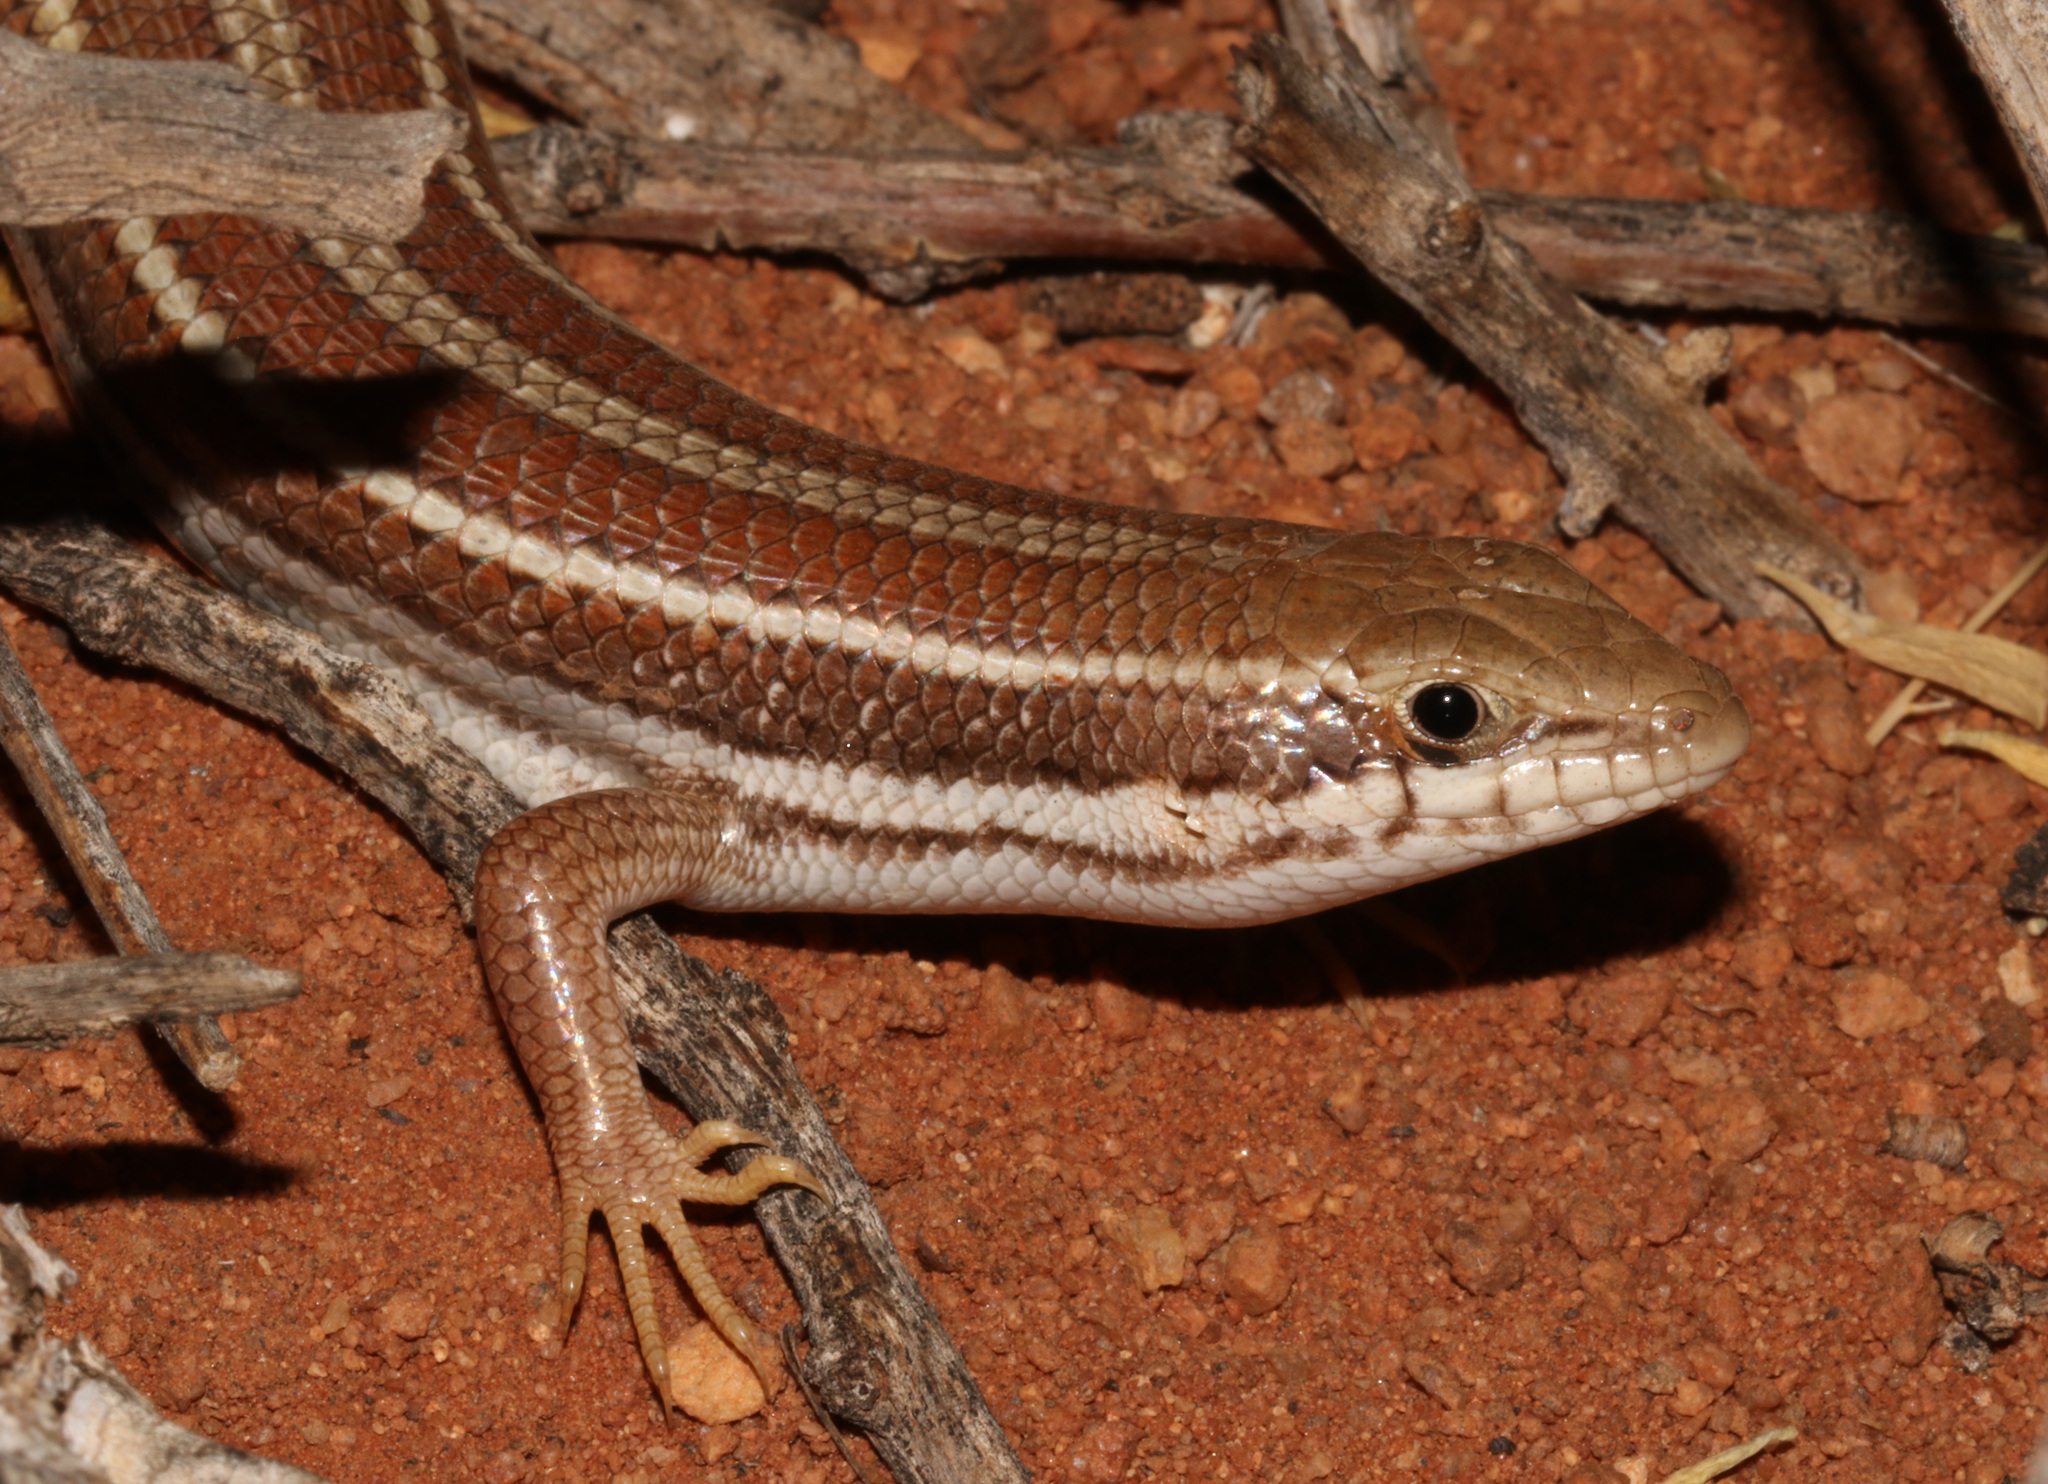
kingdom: Animalia
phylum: Chordata
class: Squamata
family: Scincidae
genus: Trachylepis
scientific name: Trachylepis occidentalis
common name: Western three-striped skink
